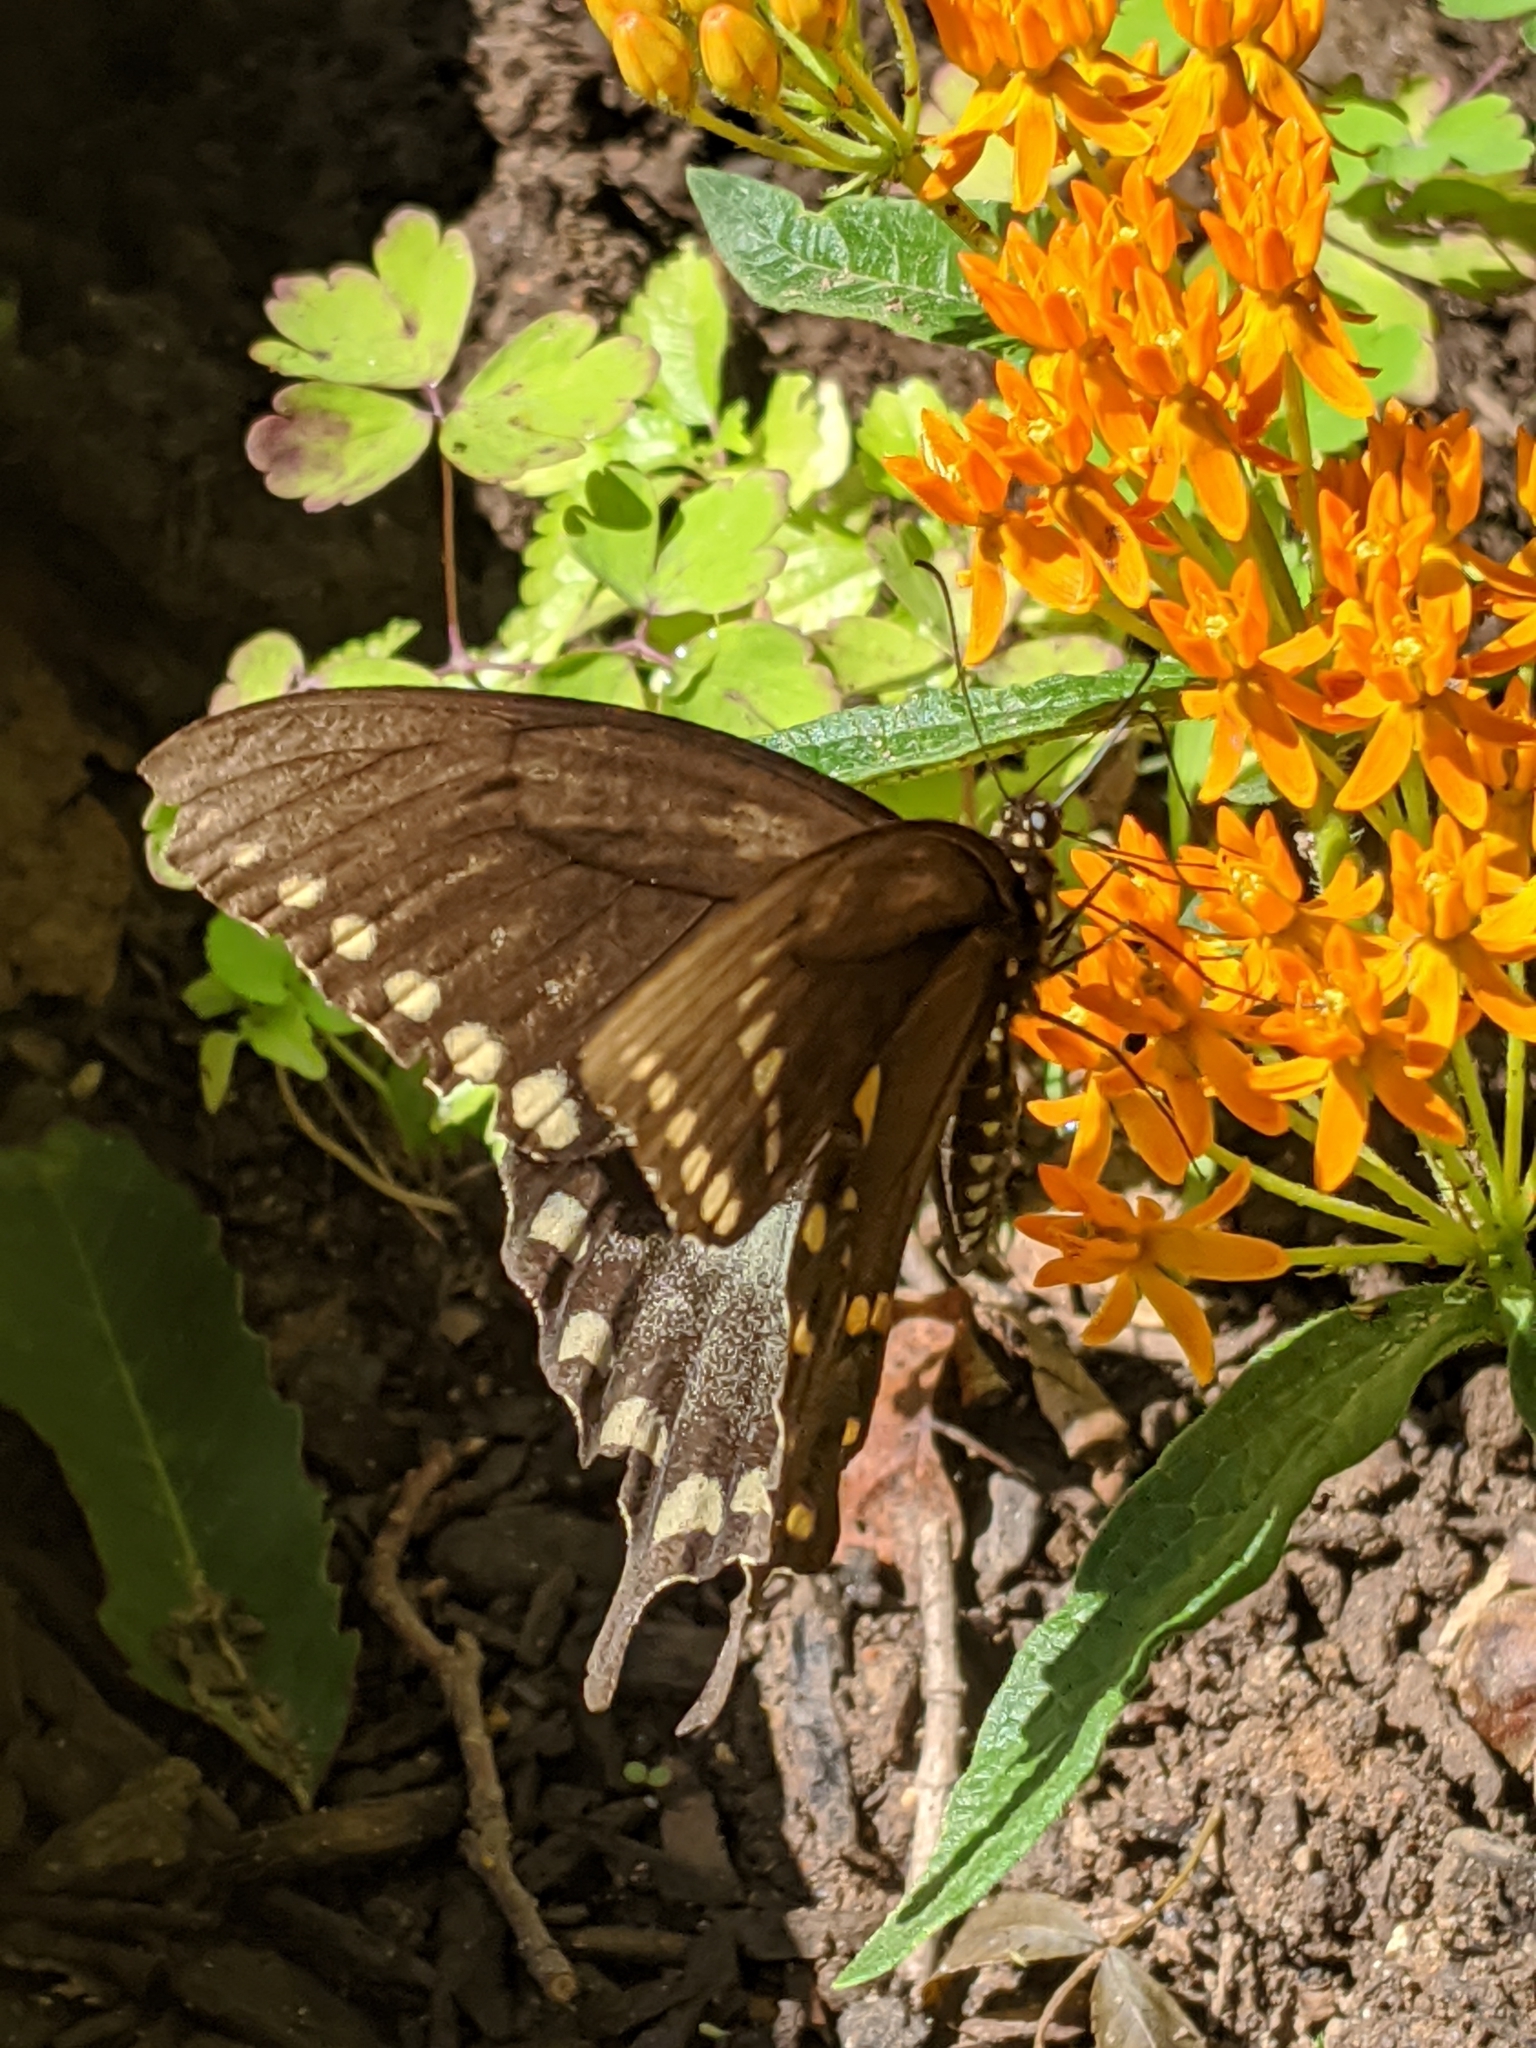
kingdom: Animalia
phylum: Arthropoda
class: Insecta
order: Lepidoptera
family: Papilionidae
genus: Papilio
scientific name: Papilio troilus
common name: Spicebush swallowtail
